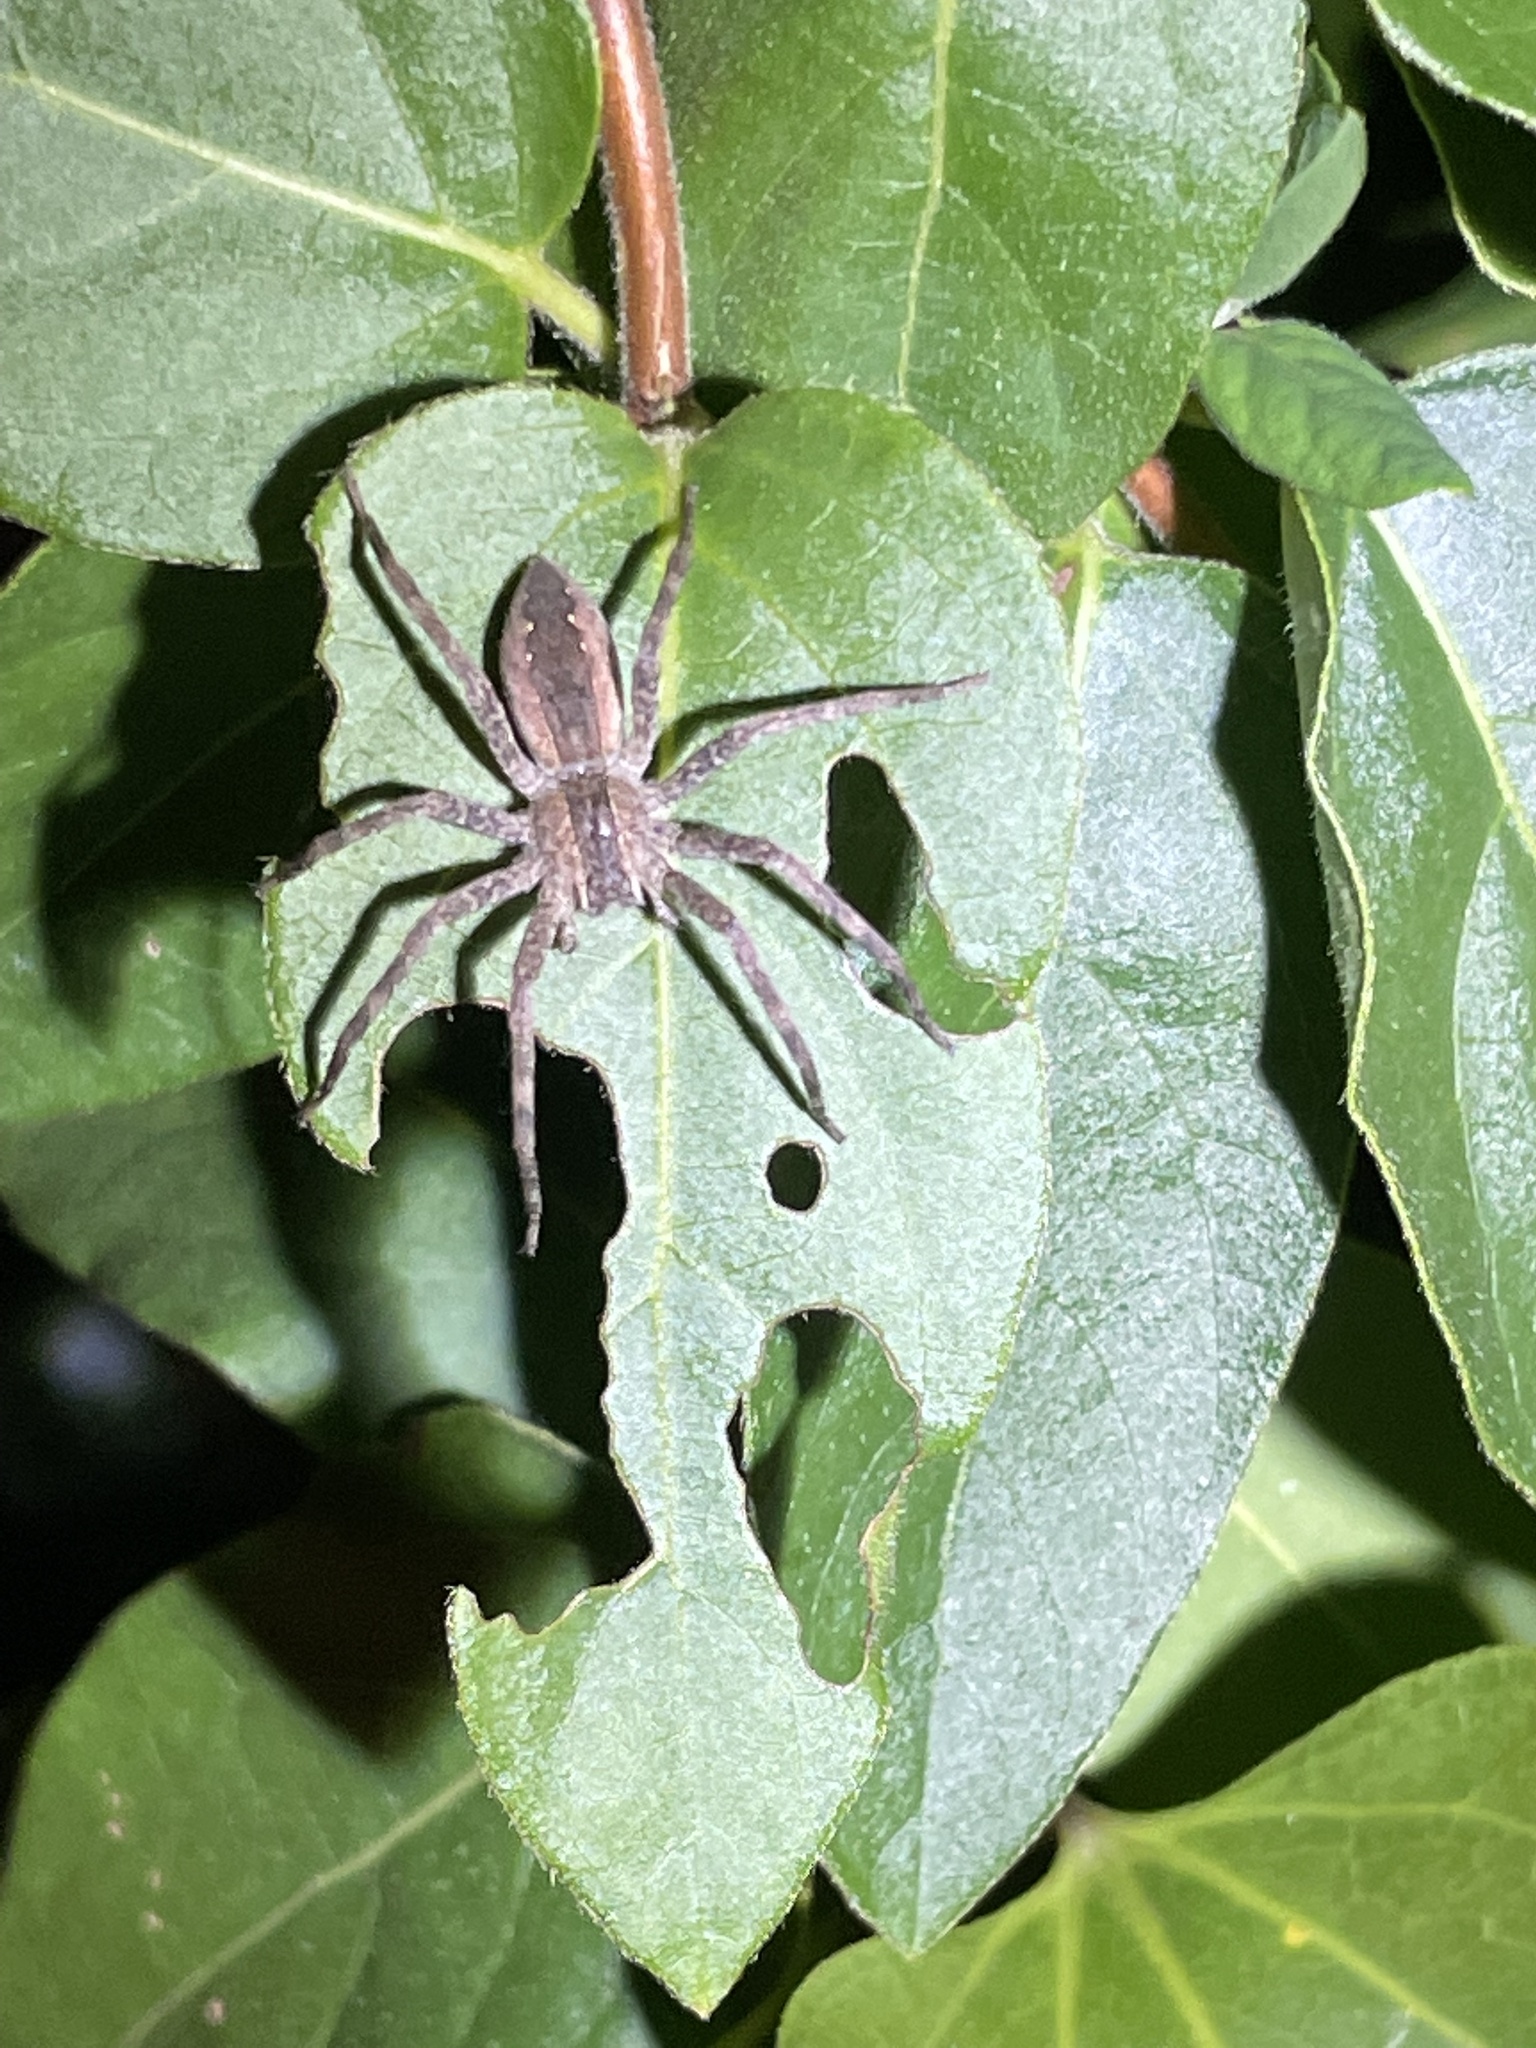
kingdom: Animalia
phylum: Arthropoda
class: Arachnida
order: Araneae
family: Pisauridae
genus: Pisaurina
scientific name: Pisaurina mira
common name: American nursery web spider
